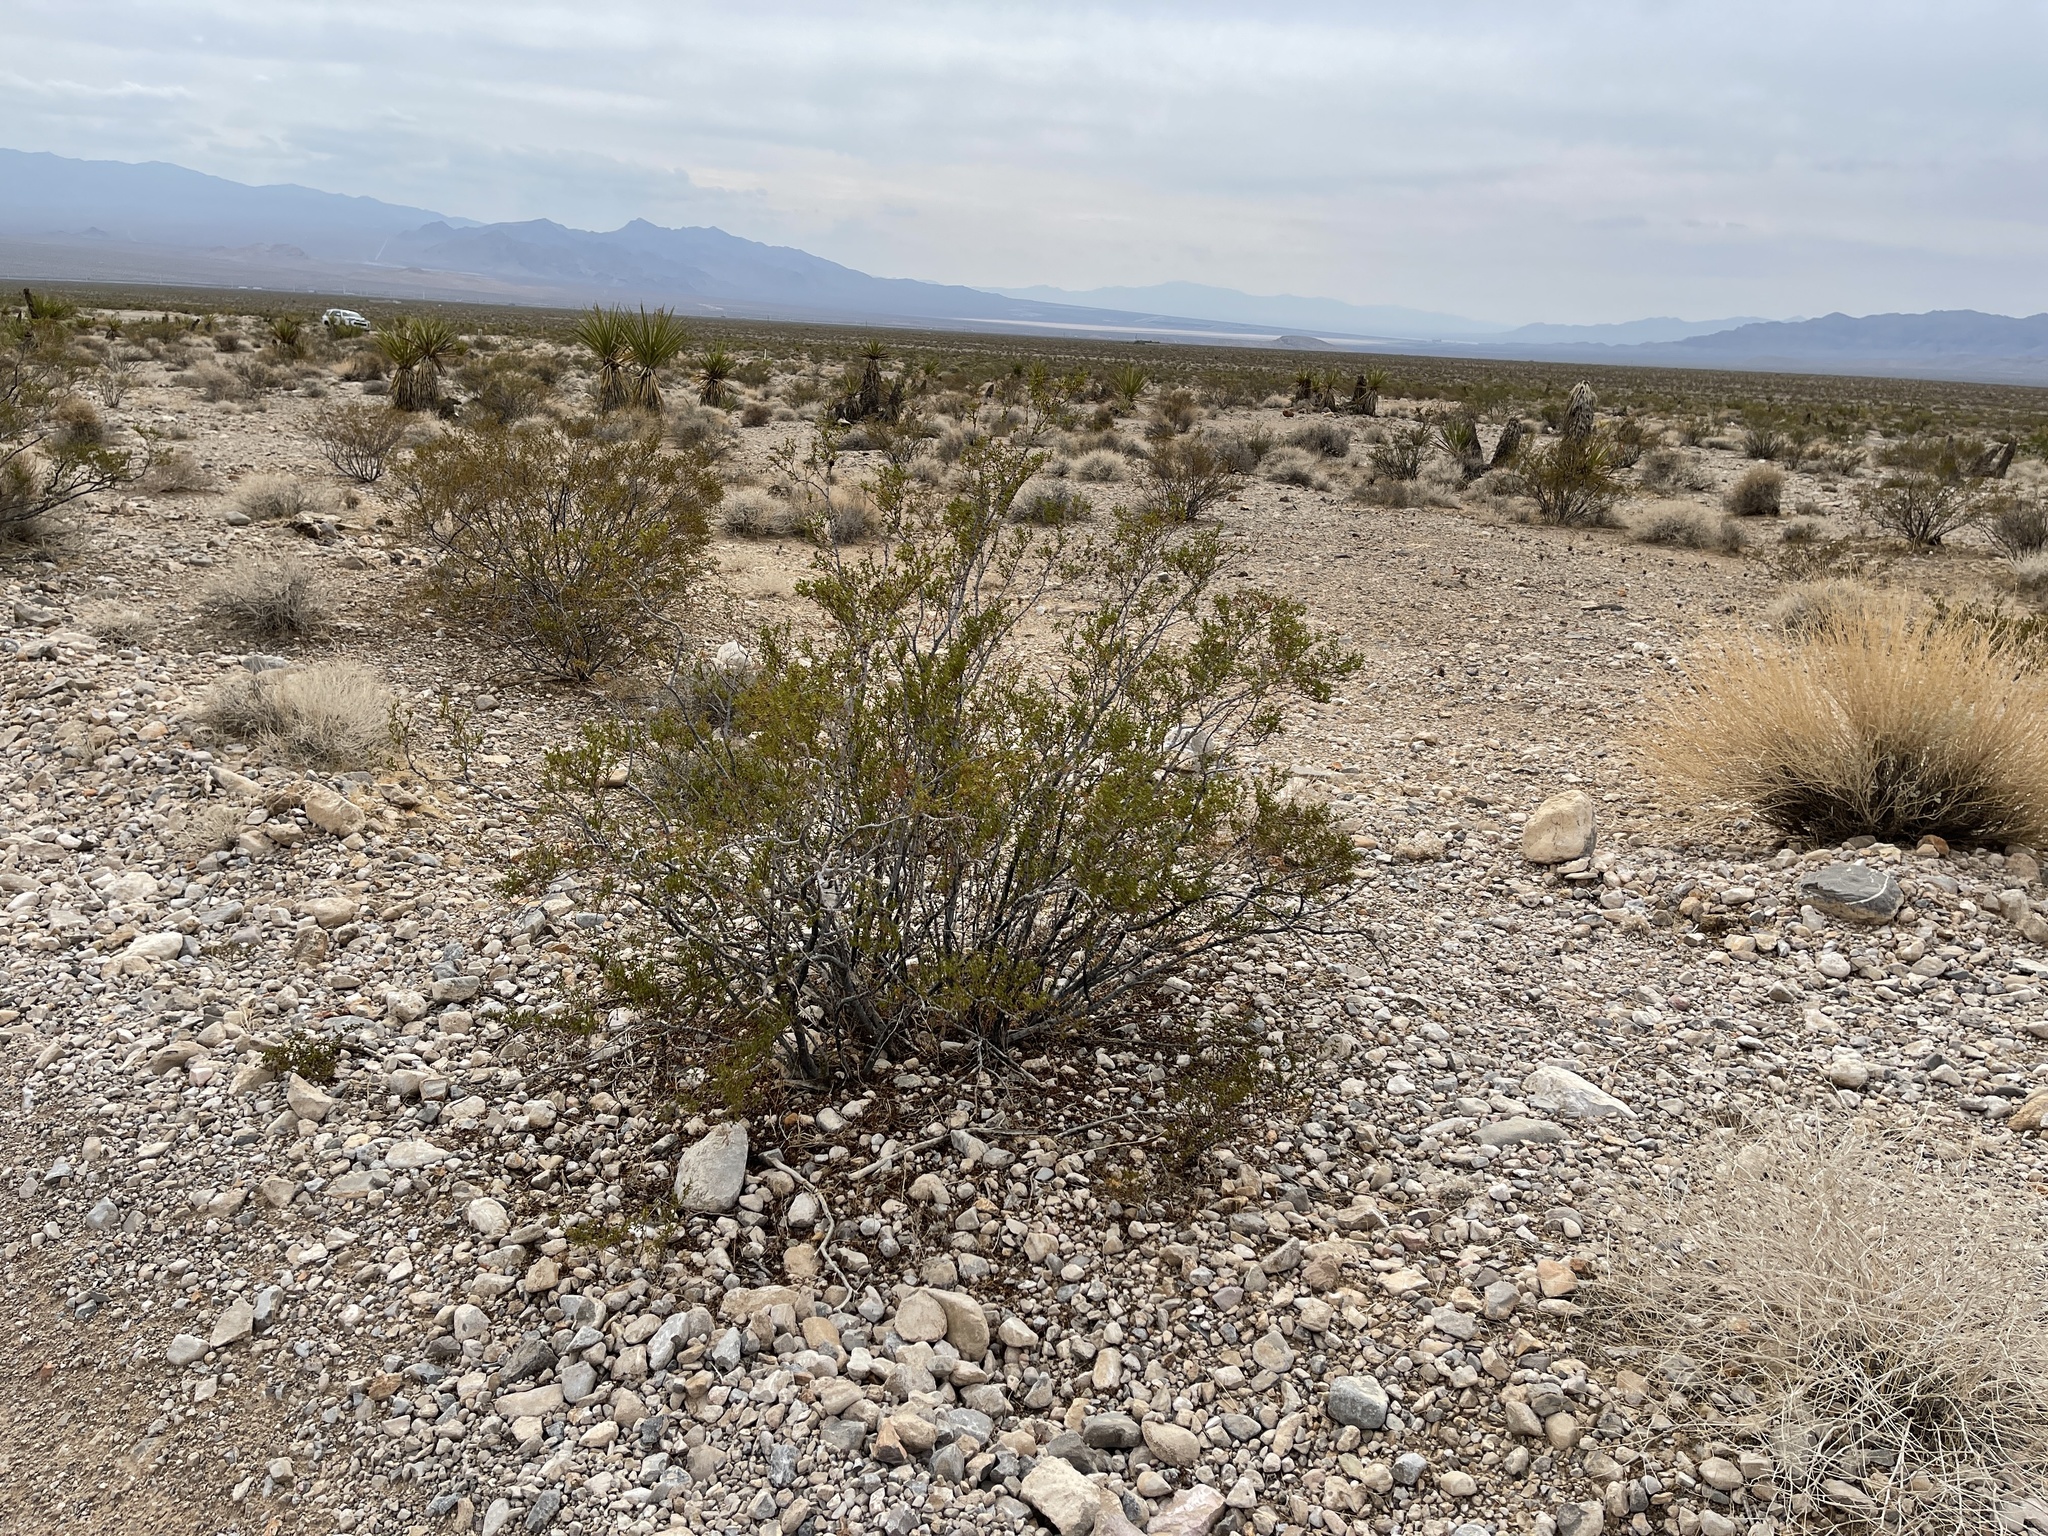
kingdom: Plantae
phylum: Tracheophyta
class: Magnoliopsida
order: Zygophyllales
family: Zygophyllaceae
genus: Larrea
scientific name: Larrea tridentata
